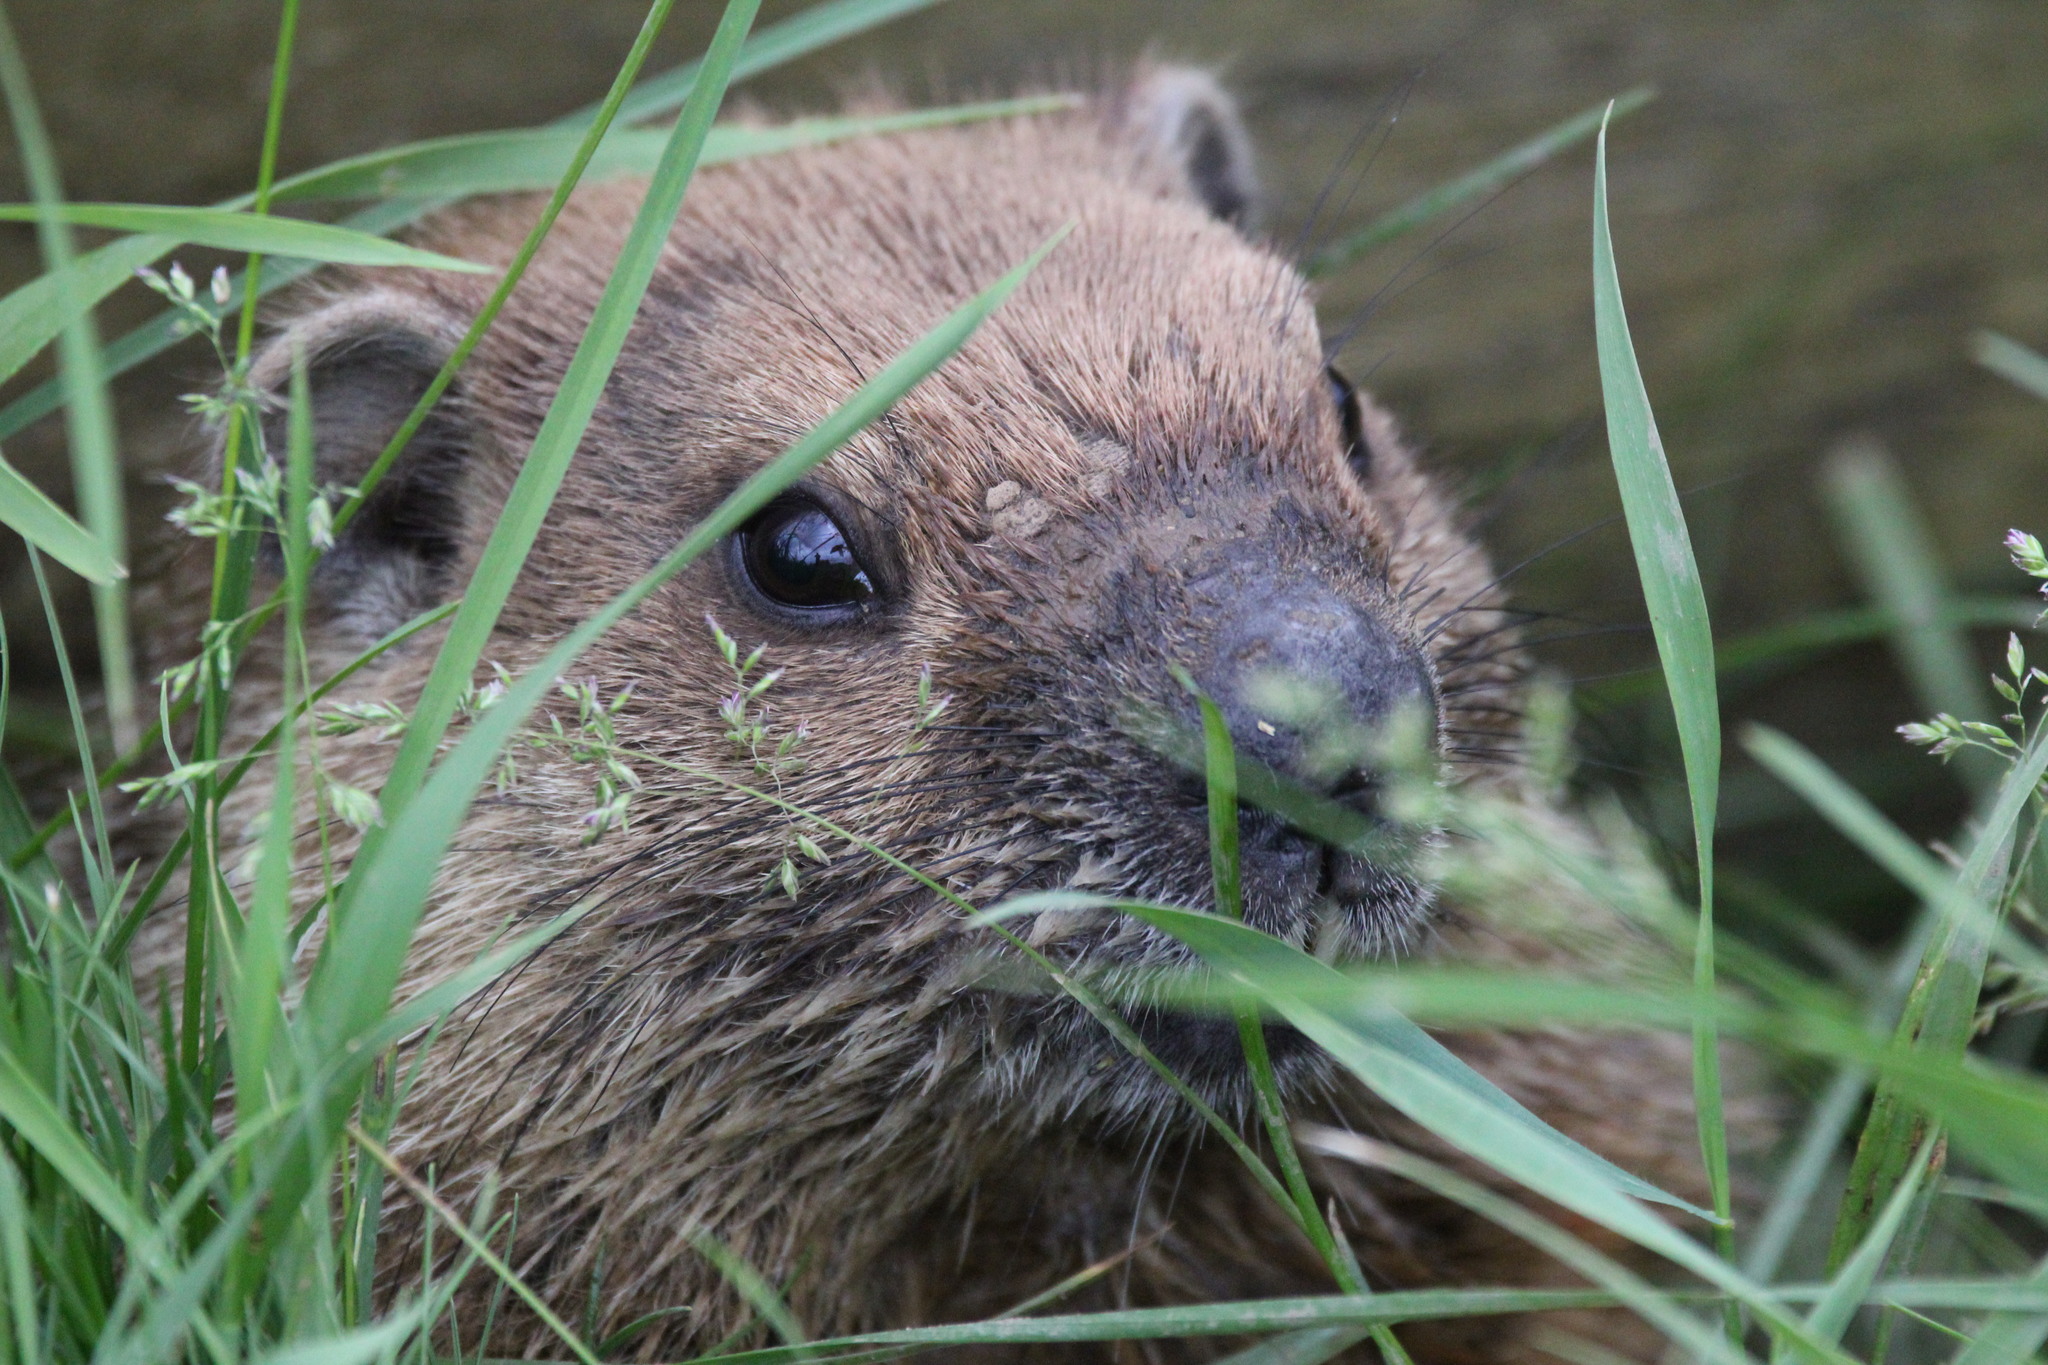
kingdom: Animalia
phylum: Chordata
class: Mammalia
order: Rodentia
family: Sciuridae
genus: Marmota
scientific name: Marmota monax
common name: Groundhog
